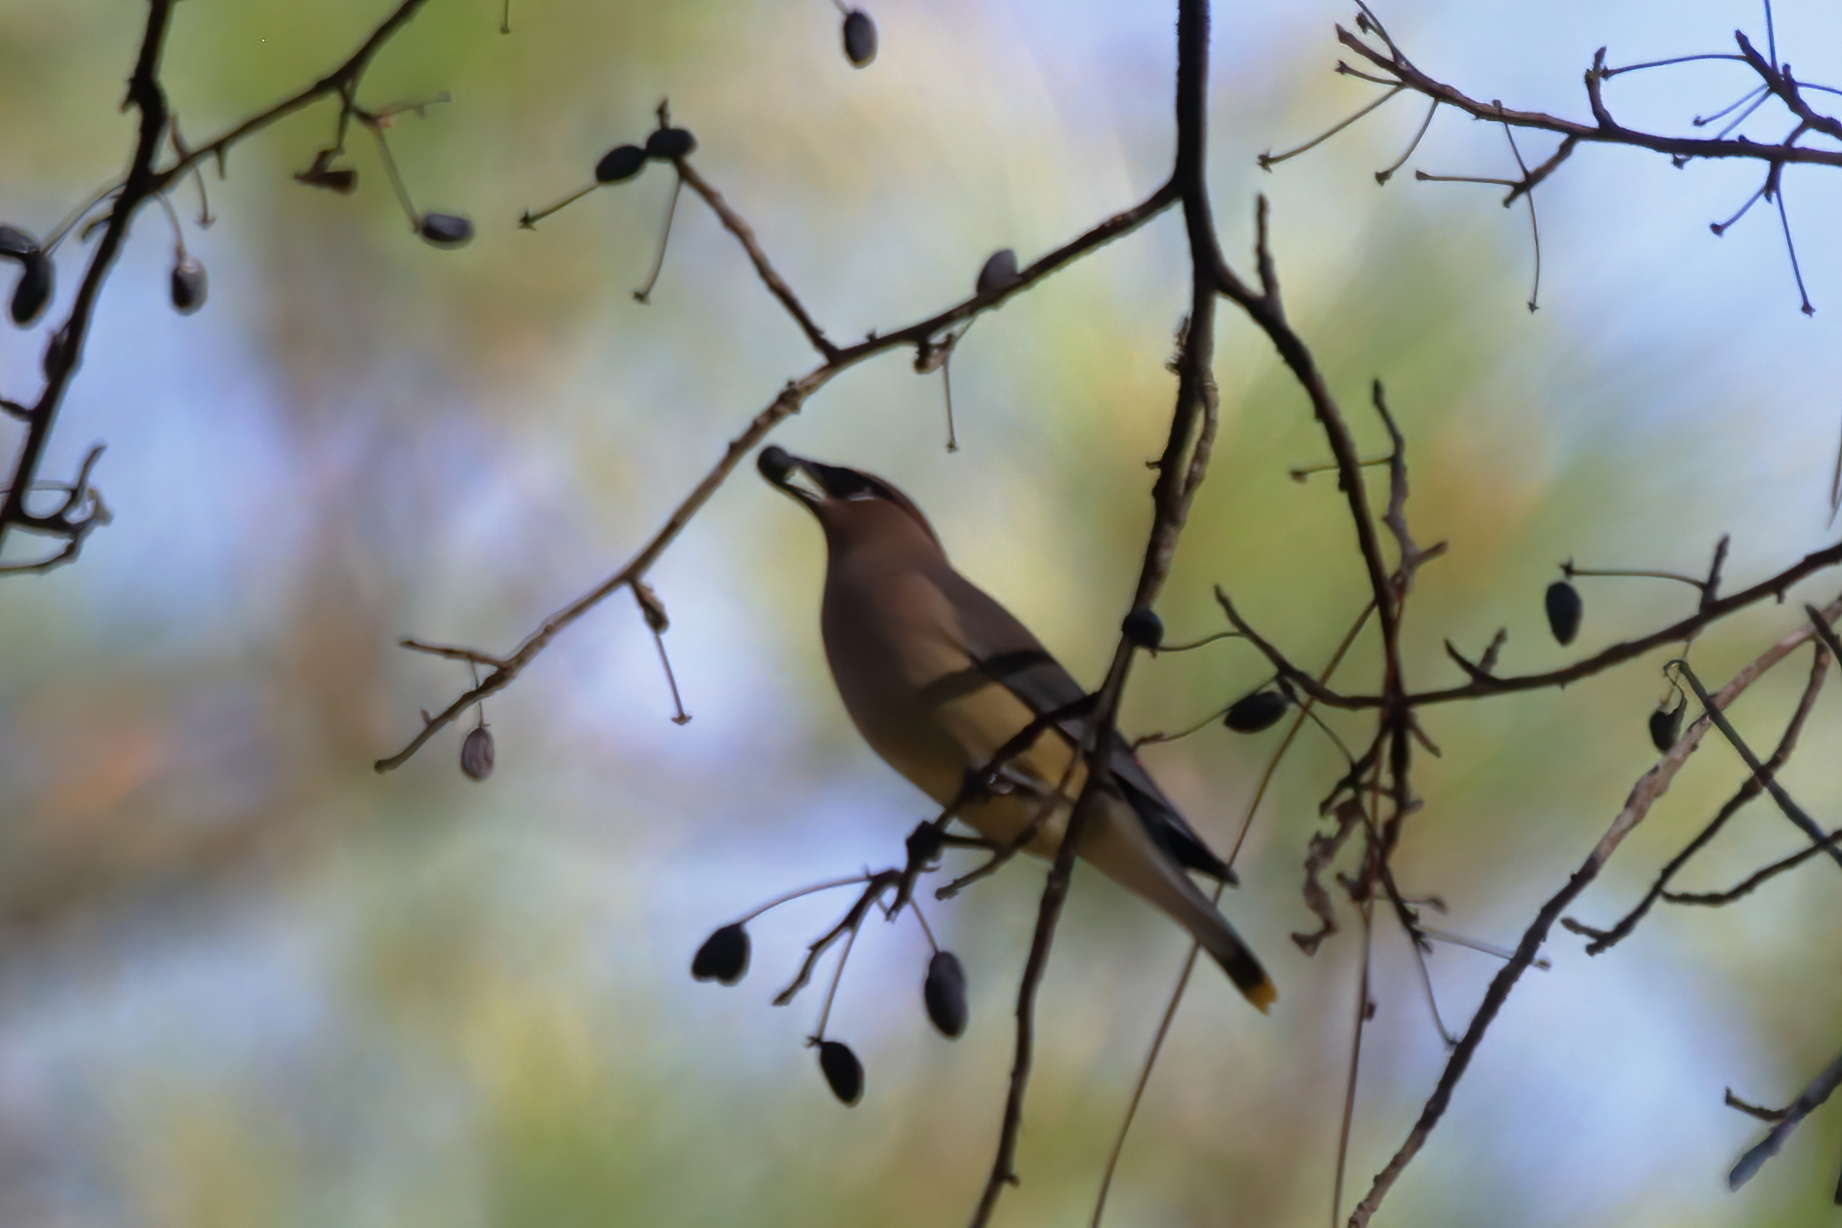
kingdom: Animalia
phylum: Chordata
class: Aves
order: Passeriformes
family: Bombycillidae
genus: Bombycilla
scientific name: Bombycilla cedrorum
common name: Cedar waxwing
